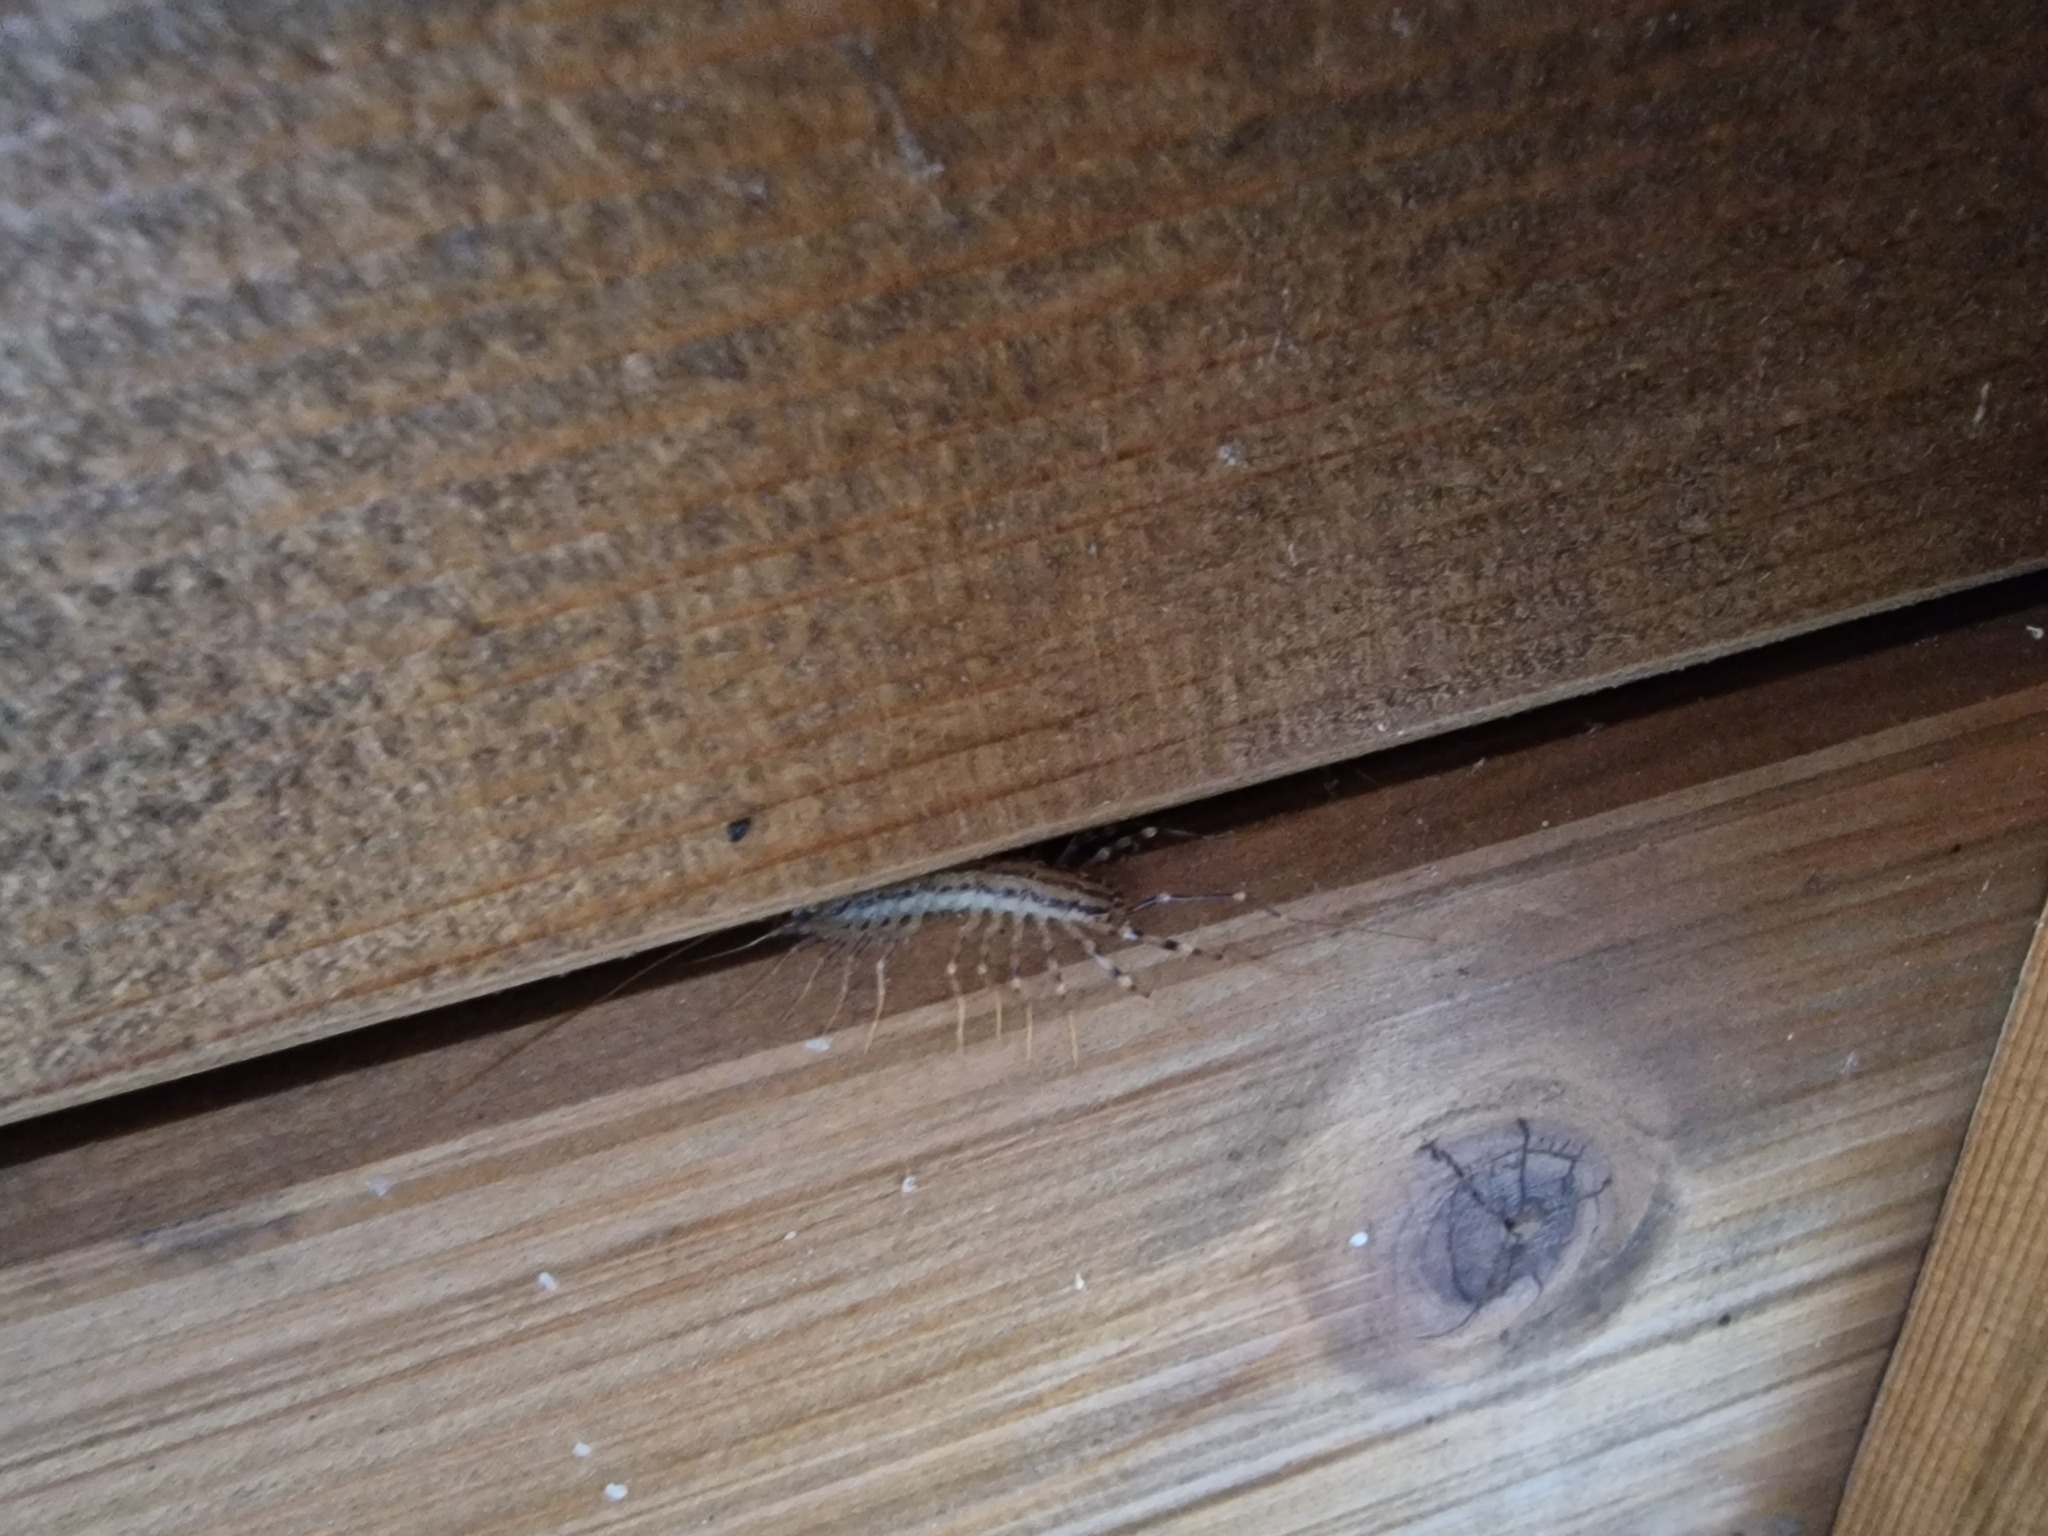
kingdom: Animalia
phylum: Arthropoda
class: Chilopoda
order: Scutigeromorpha
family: Scutigeridae
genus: Scutigera
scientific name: Scutigera coleoptrata
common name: House centipede
